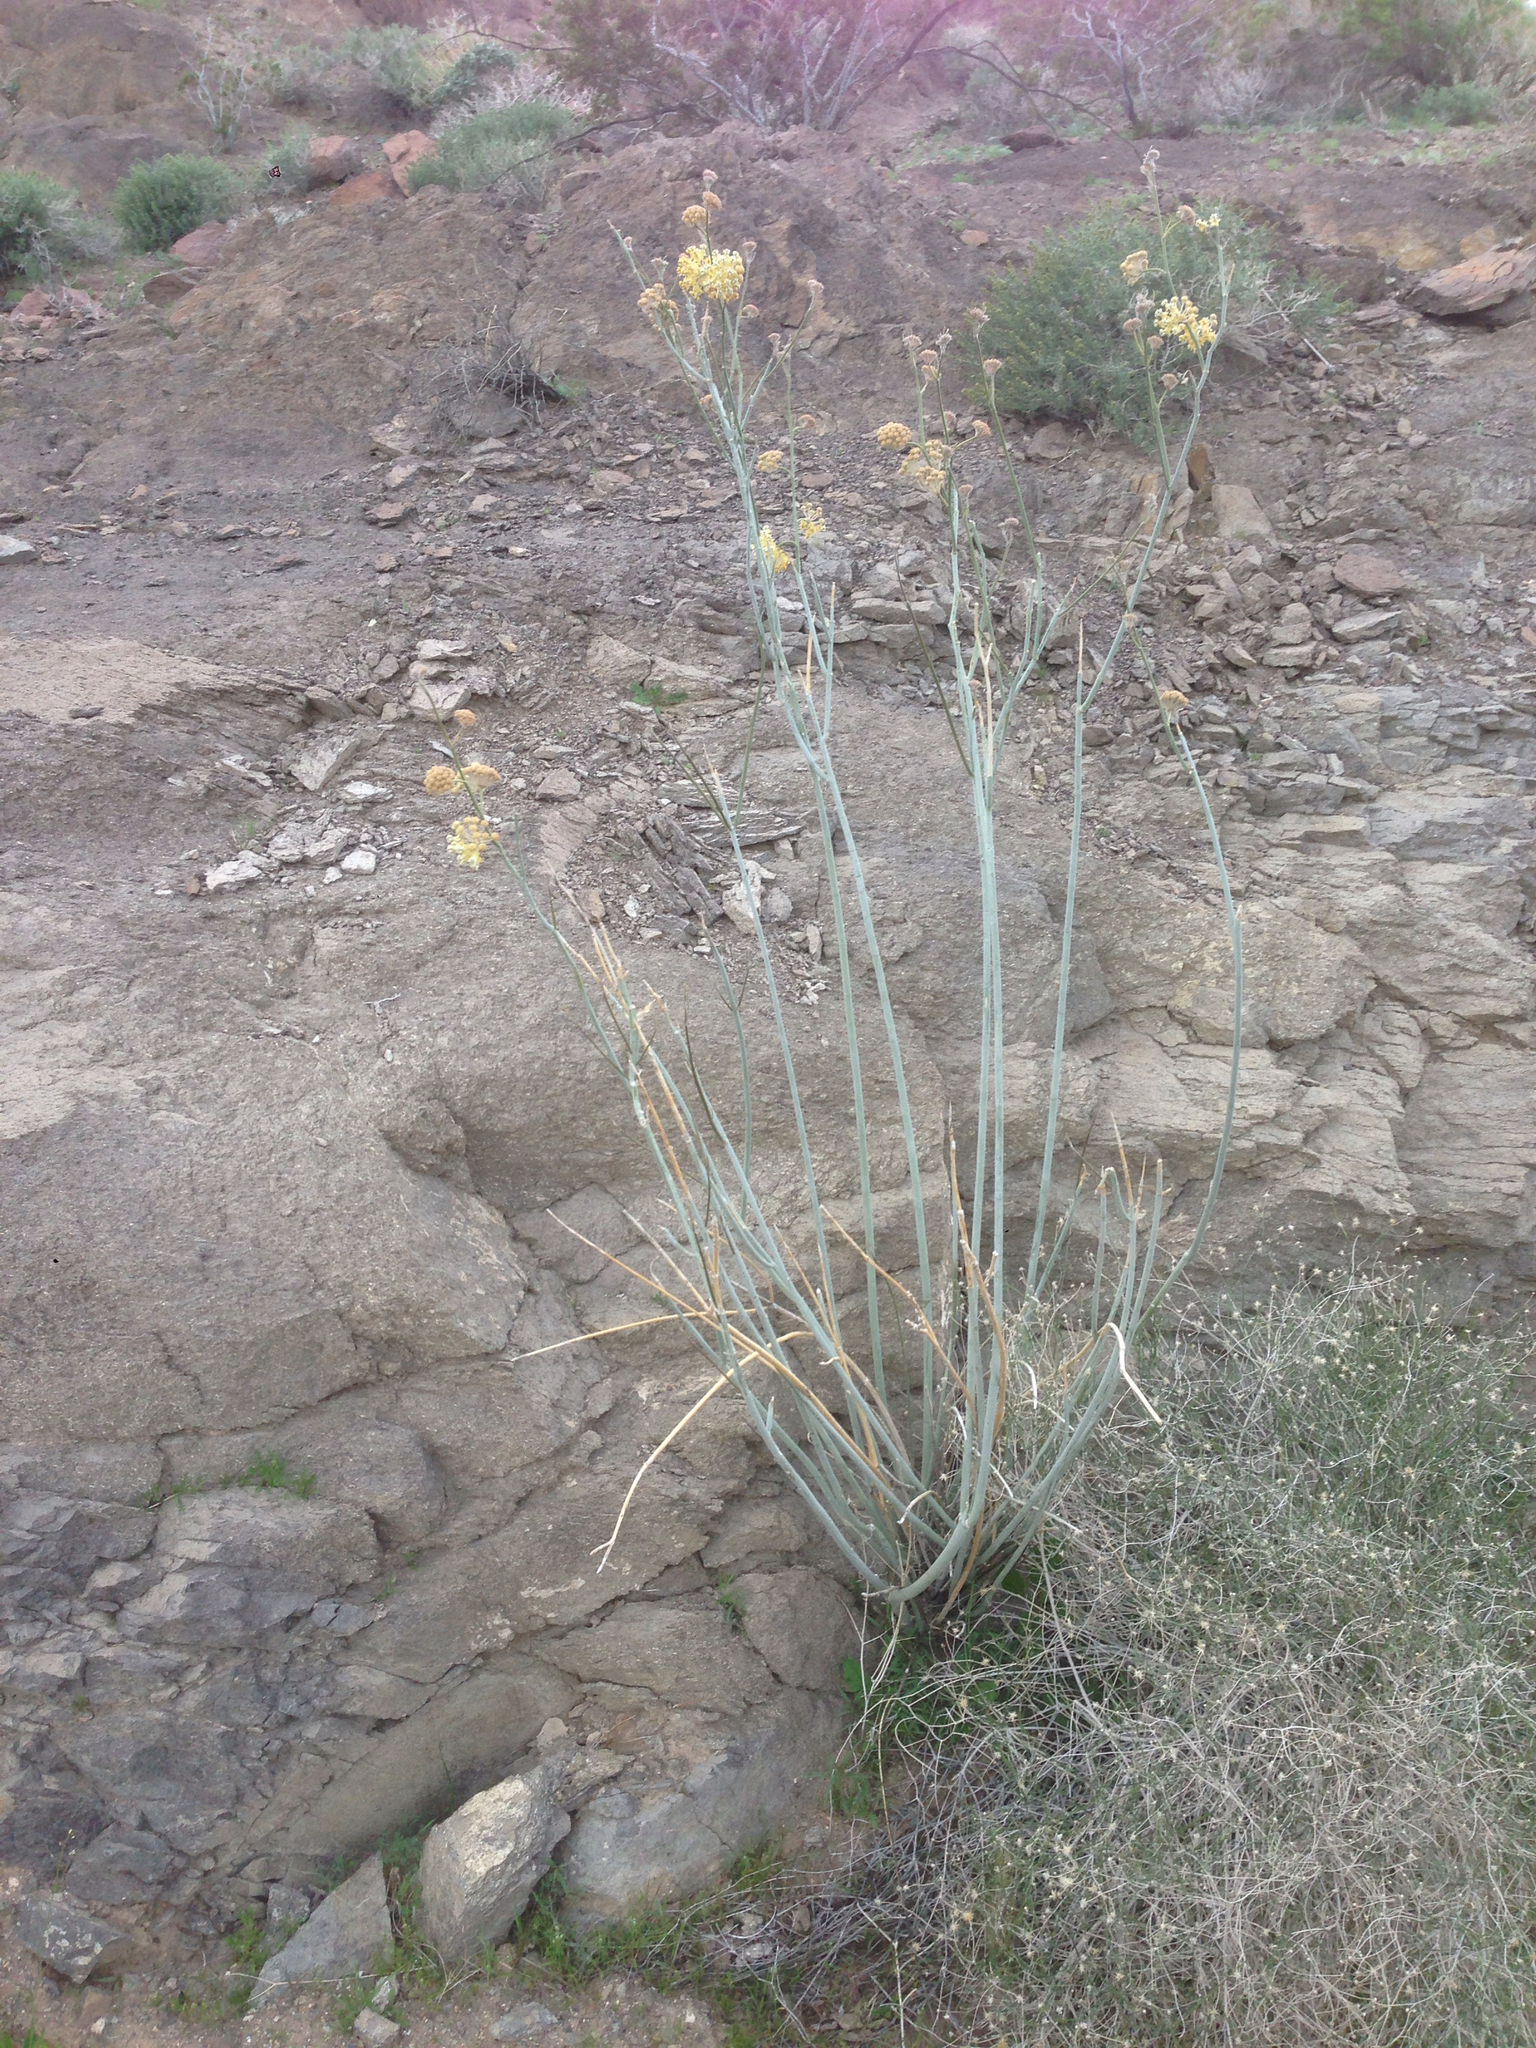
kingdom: Plantae
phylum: Tracheophyta
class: Magnoliopsida
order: Gentianales
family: Apocynaceae
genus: Asclepias
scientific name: Asclepias albicans
